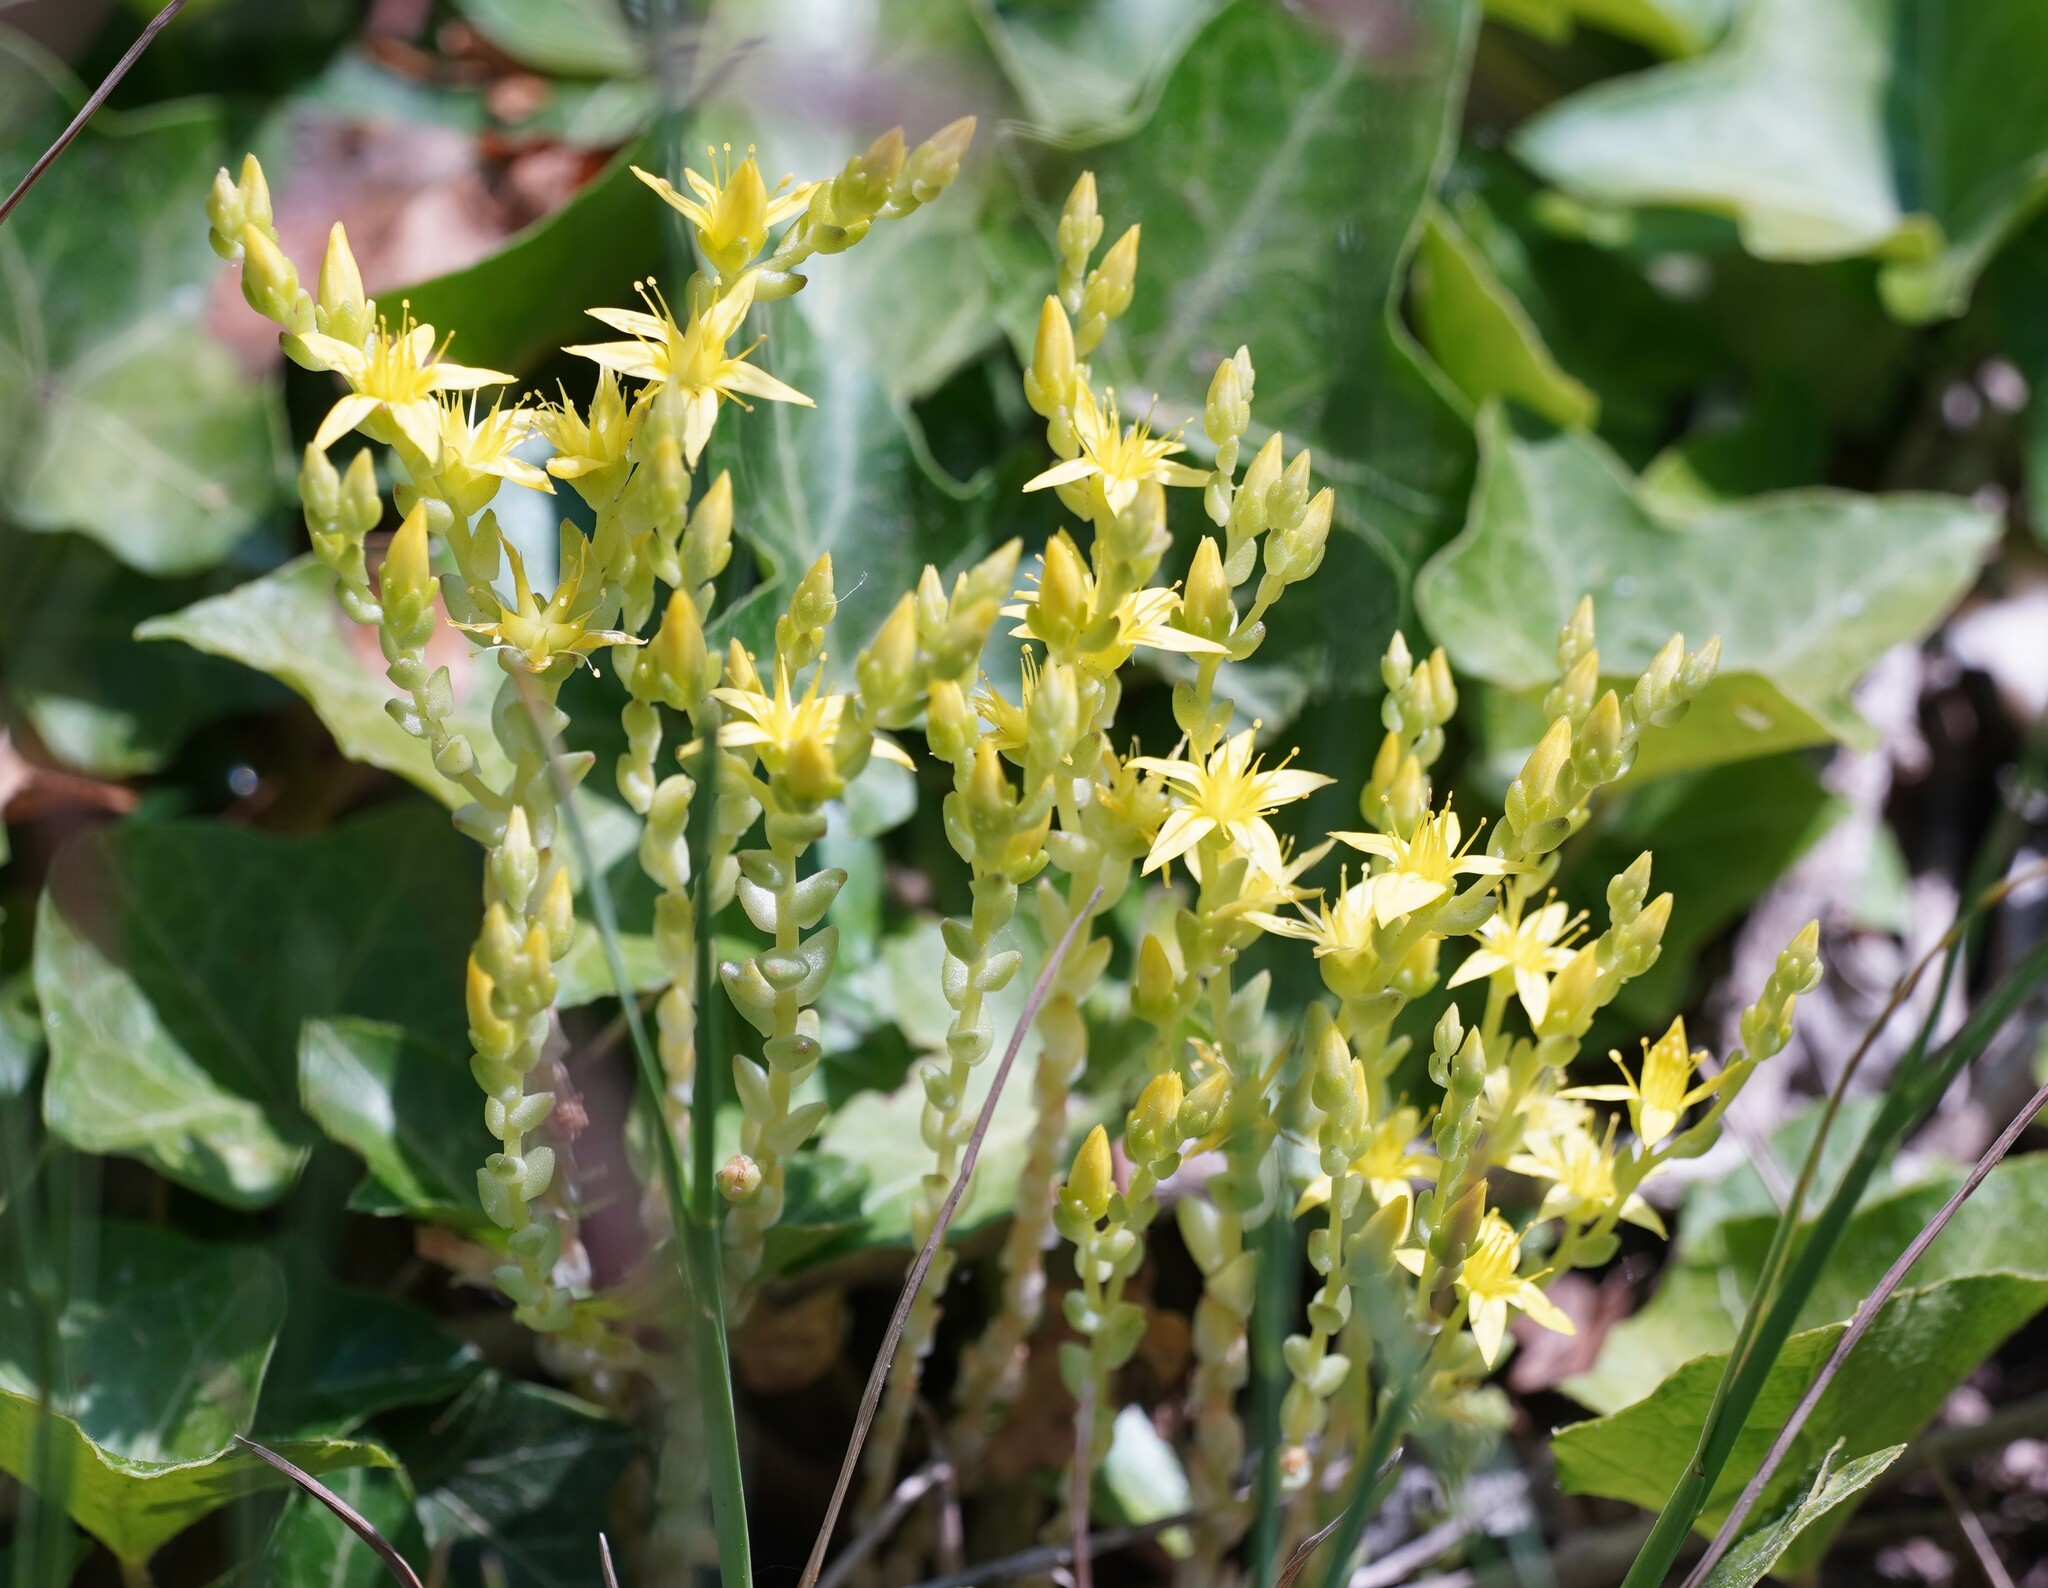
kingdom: Plantae
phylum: Tracheophyta
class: Magnoliopsida
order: Saxifragales
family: Crassulaceae
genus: Sedum
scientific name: Sedum acre
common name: Biting stonecrop
